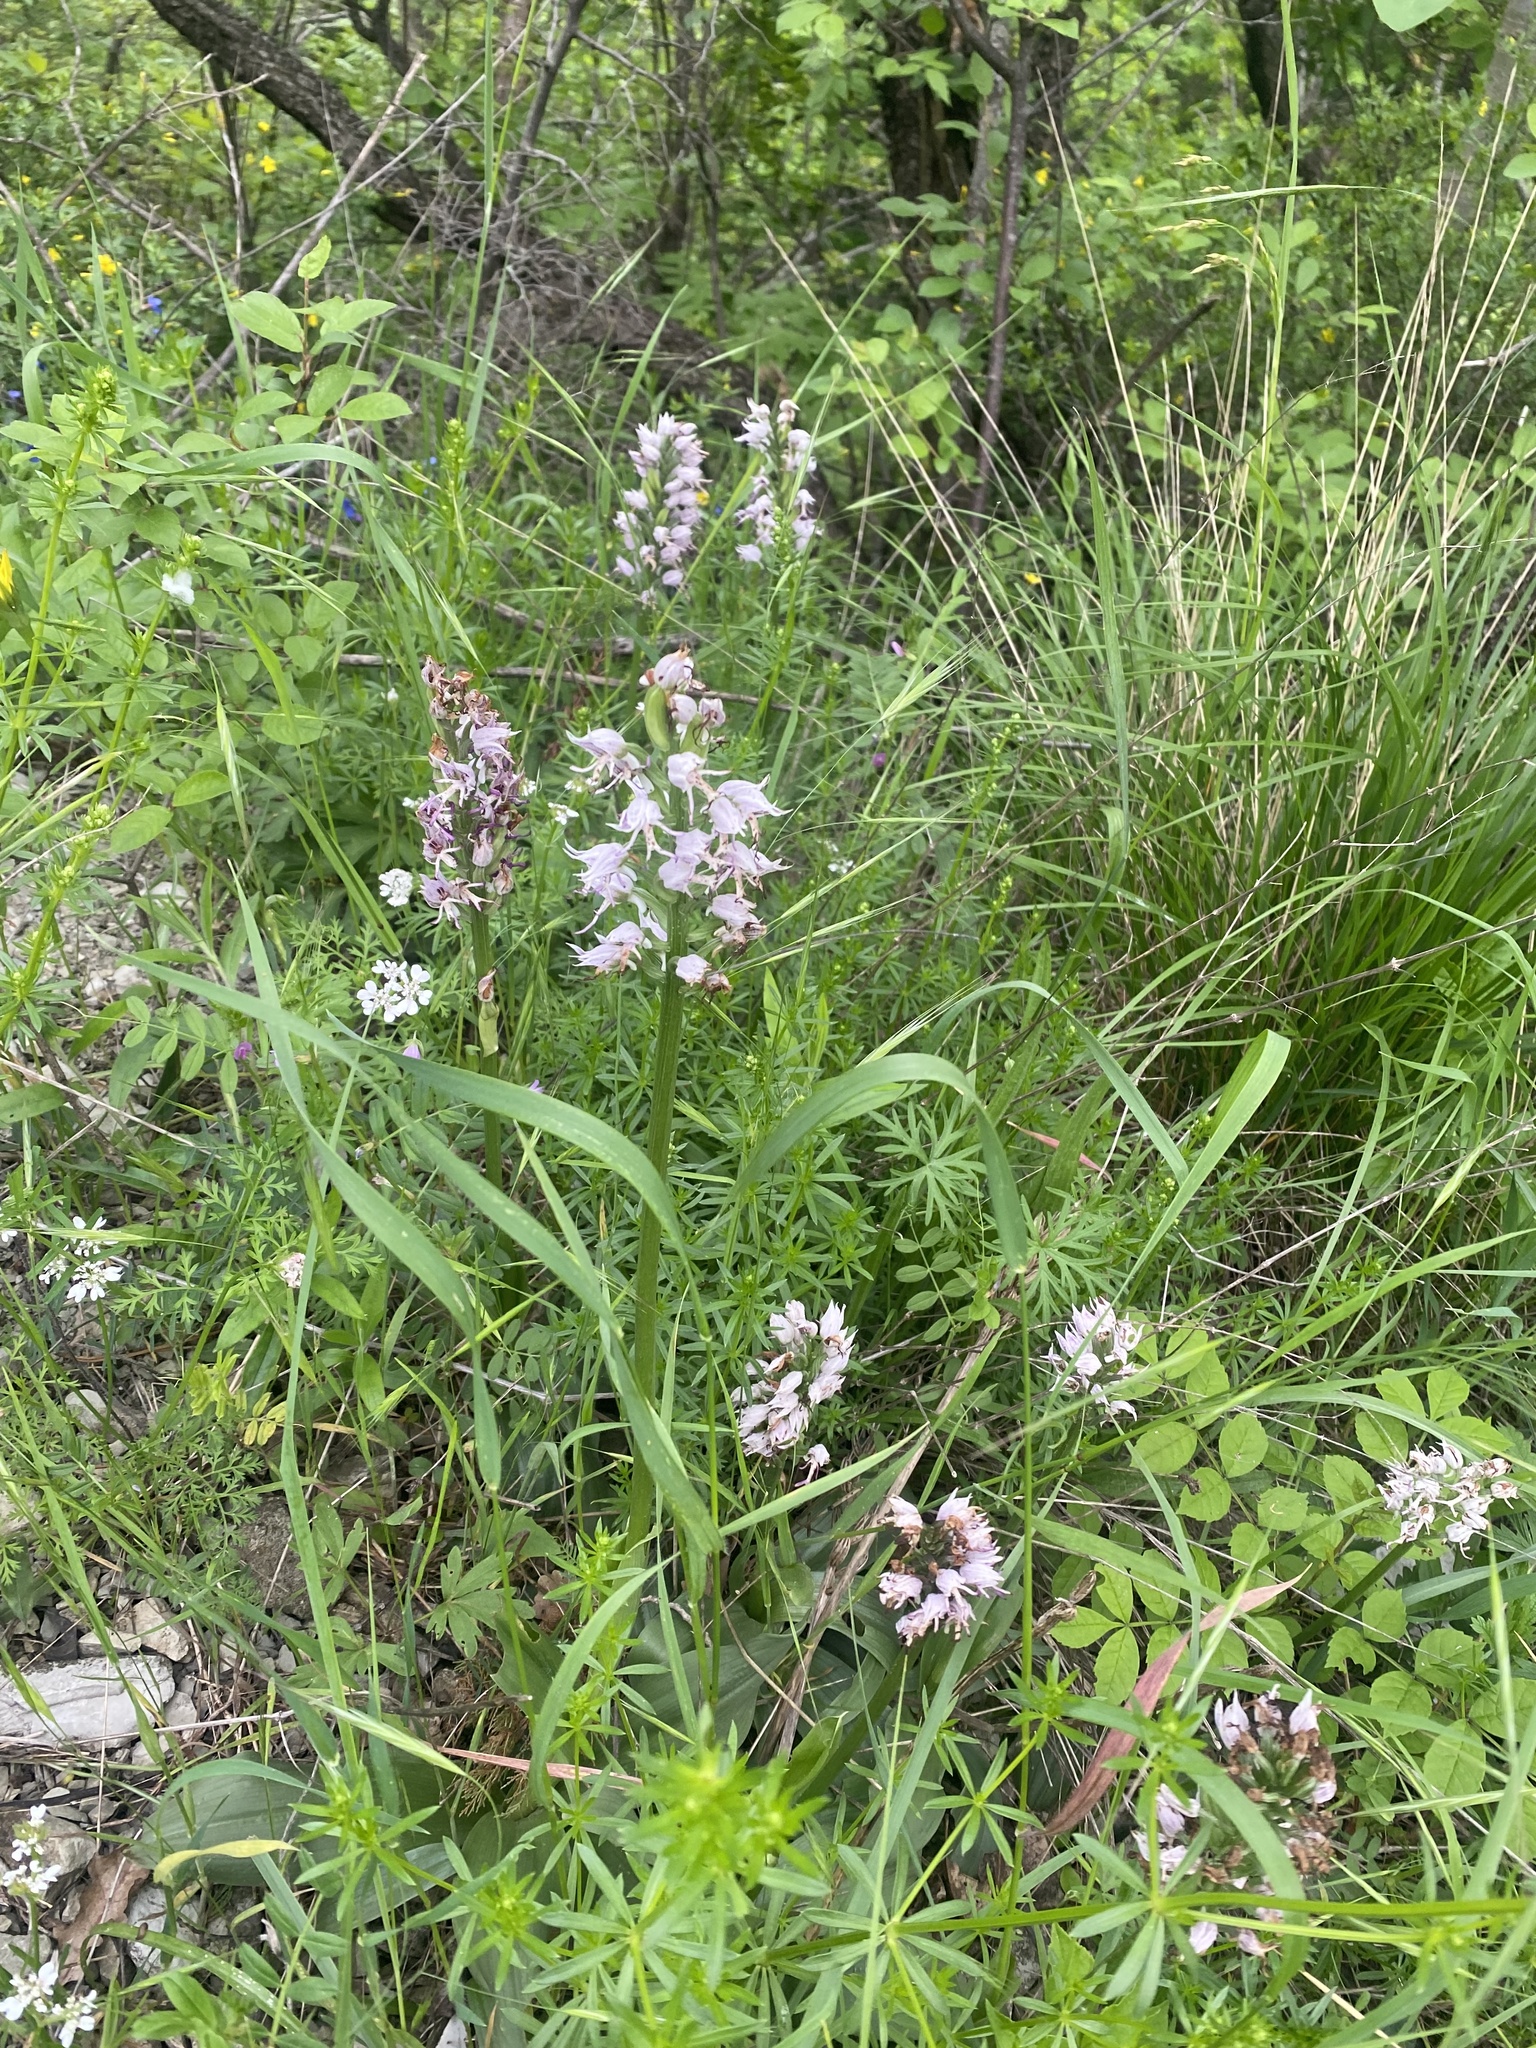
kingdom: Plantae
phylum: Tracheophyta
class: Liliopsida
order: Asparagales
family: Orchidaceae
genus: Orchis
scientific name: Orchis simia
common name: Monkey orchid
